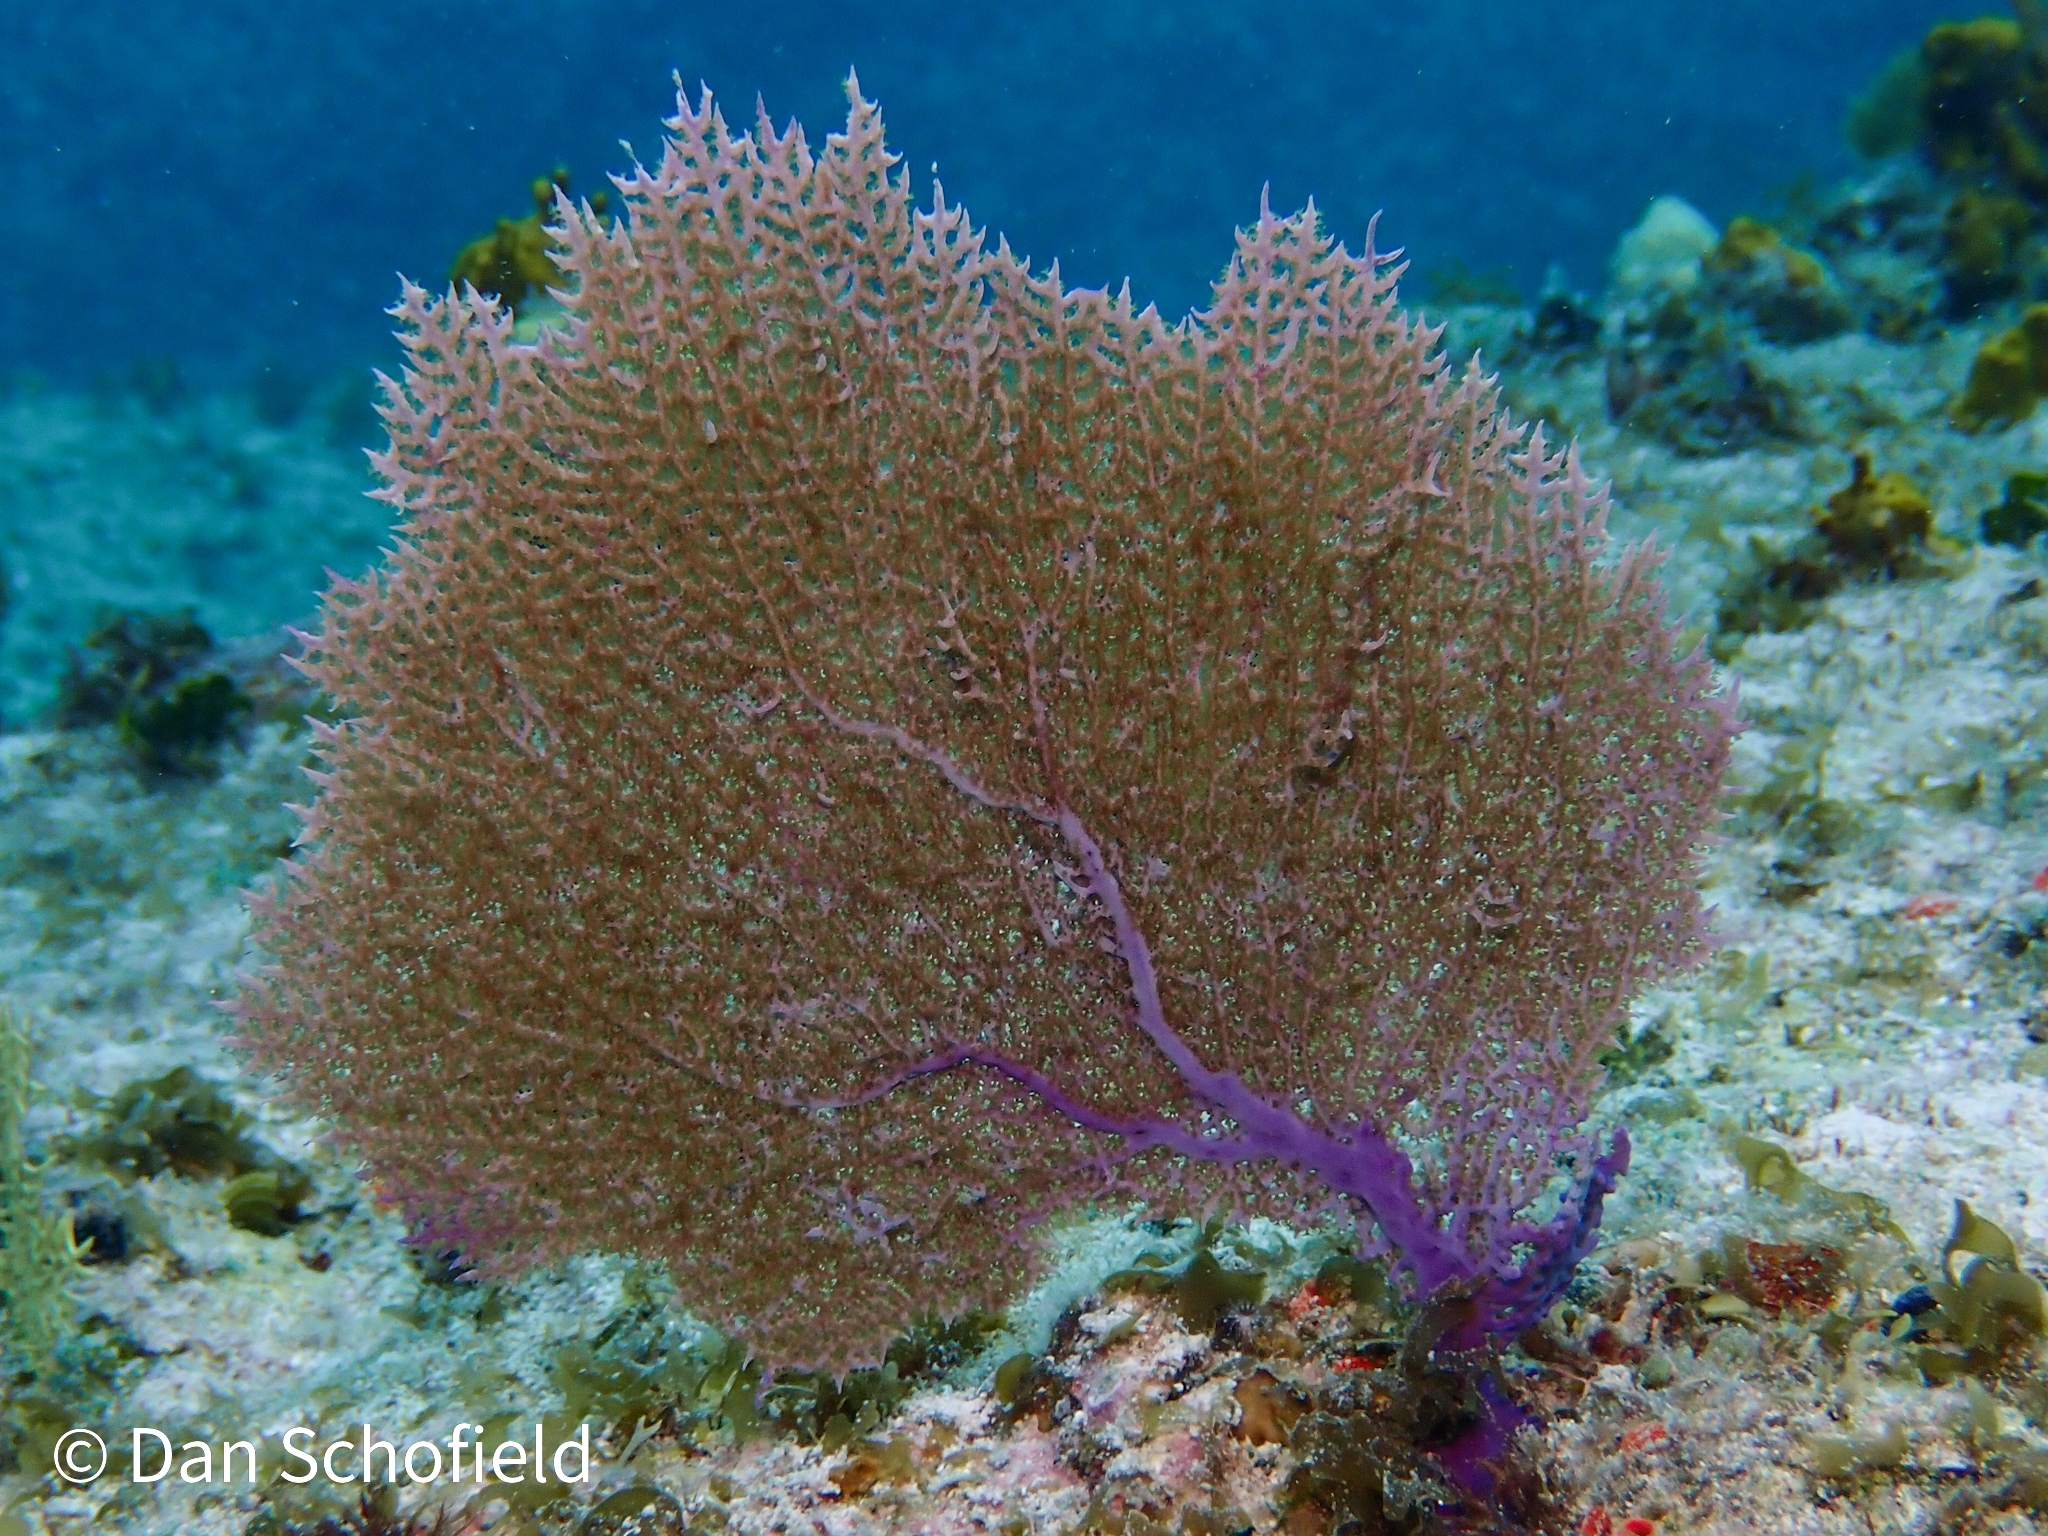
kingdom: Animalia
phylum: Cnidaria
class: Anthozoa
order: Malacalcyonacea
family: Gorgoniidae
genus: Gorgonia
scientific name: Gorgonia ventalina
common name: Common sea fan
